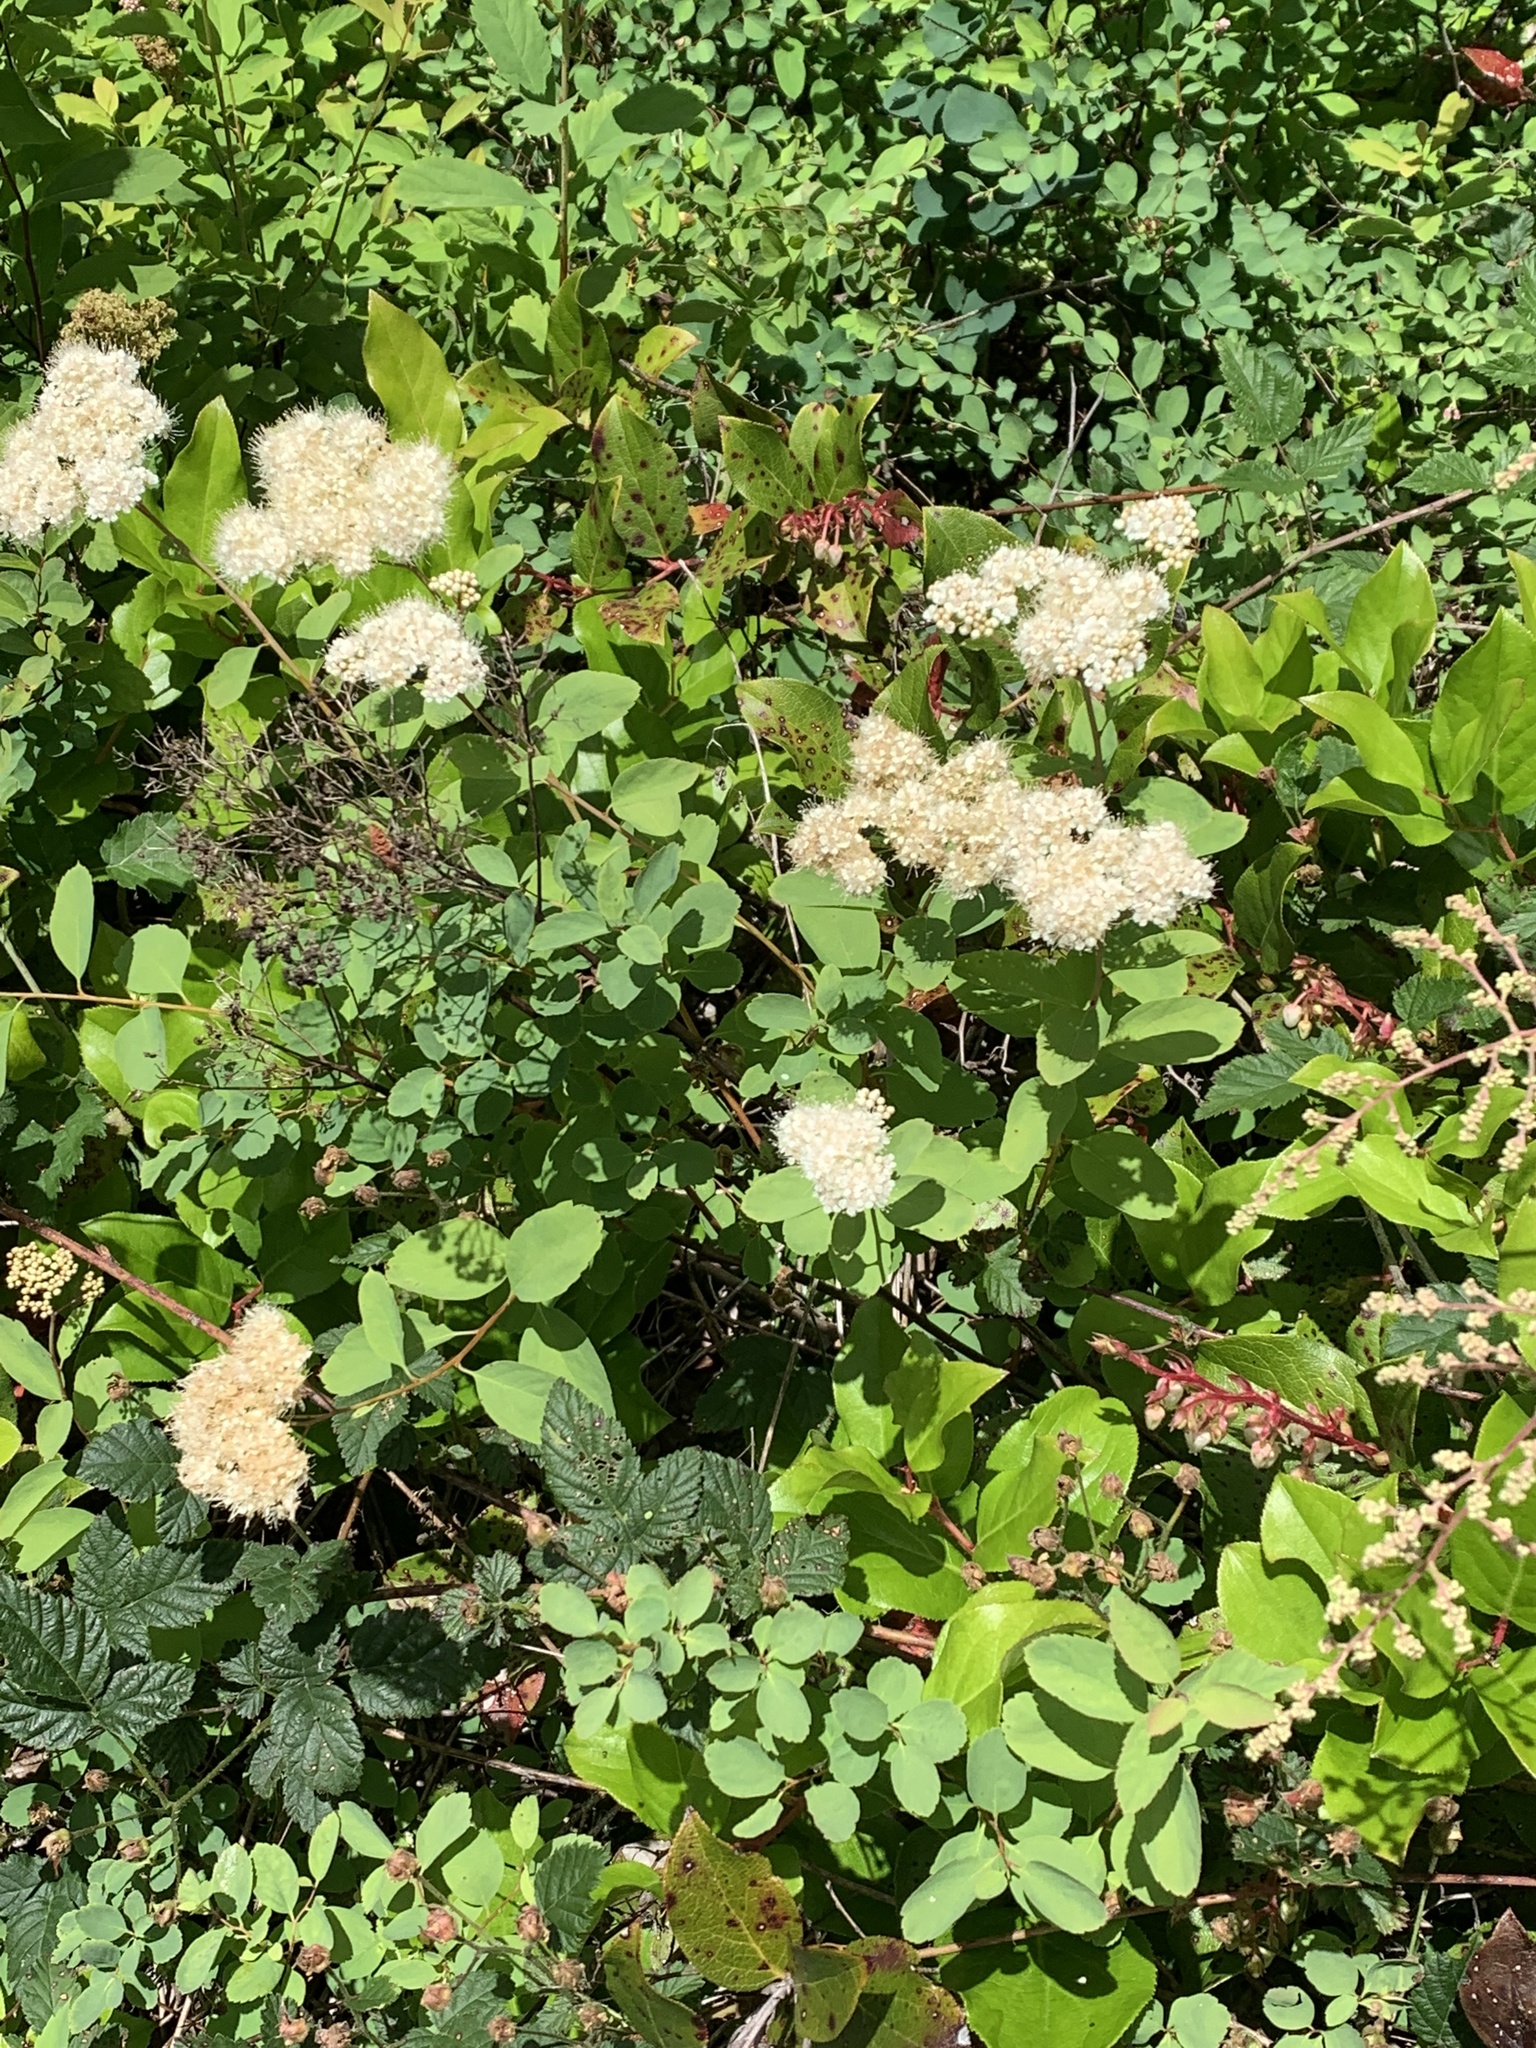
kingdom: Plantae
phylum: Tracheophyta
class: Magnoliopsida
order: Rosales
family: Rosaceae
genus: Spiraea
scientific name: Spiraea lucida
